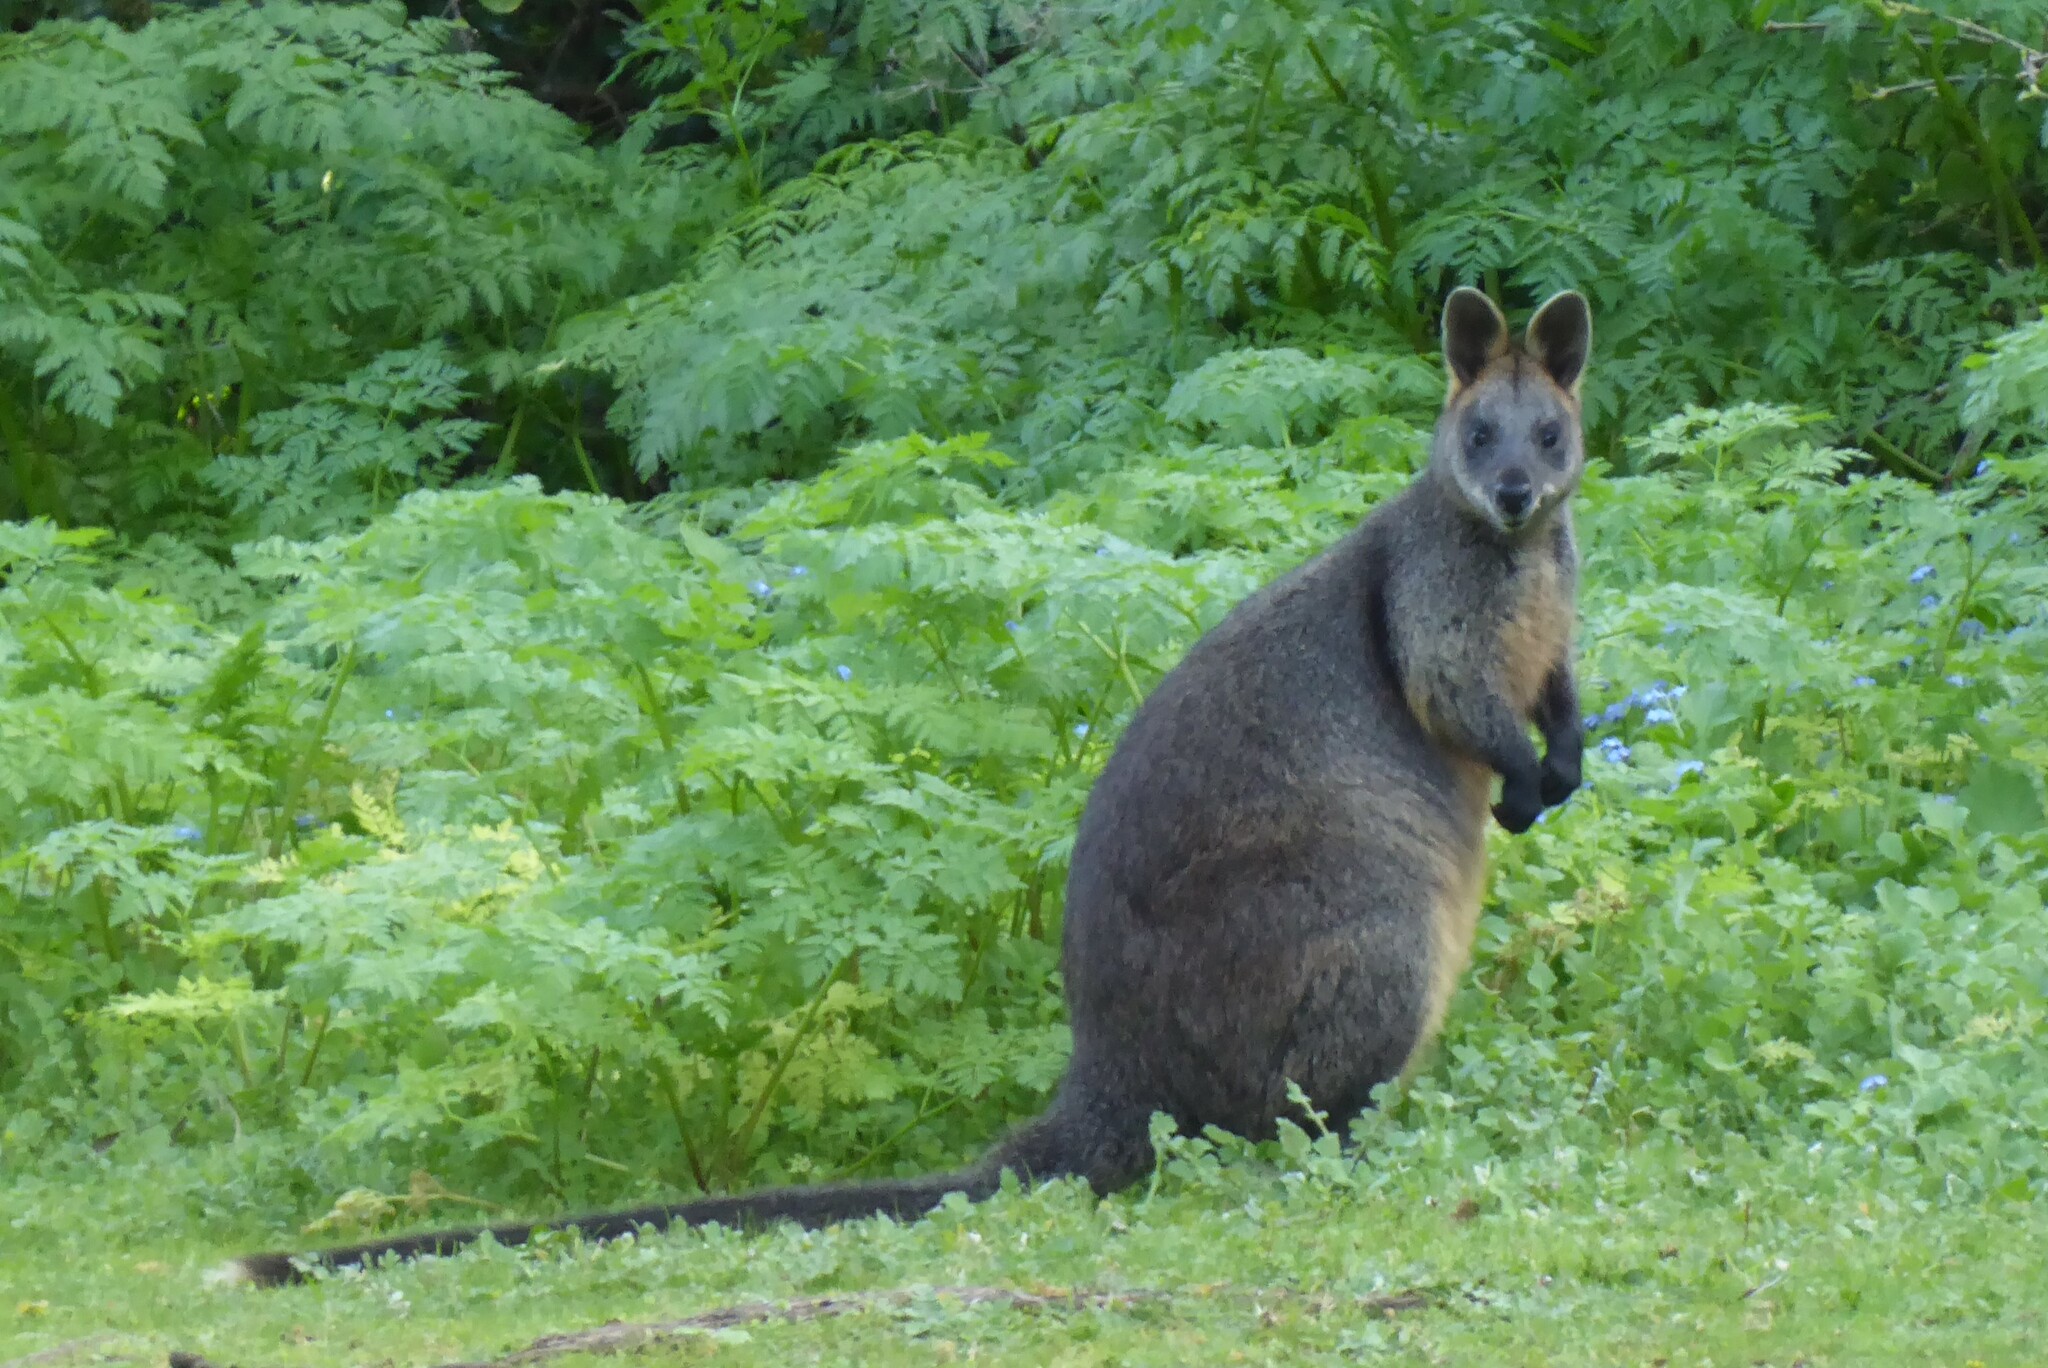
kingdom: Animalia
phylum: Chordata
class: Mammalia
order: Diprotodontia
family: Macropodidae
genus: Wallabia
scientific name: Wallabia bicolor
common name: Swamp wallaby
